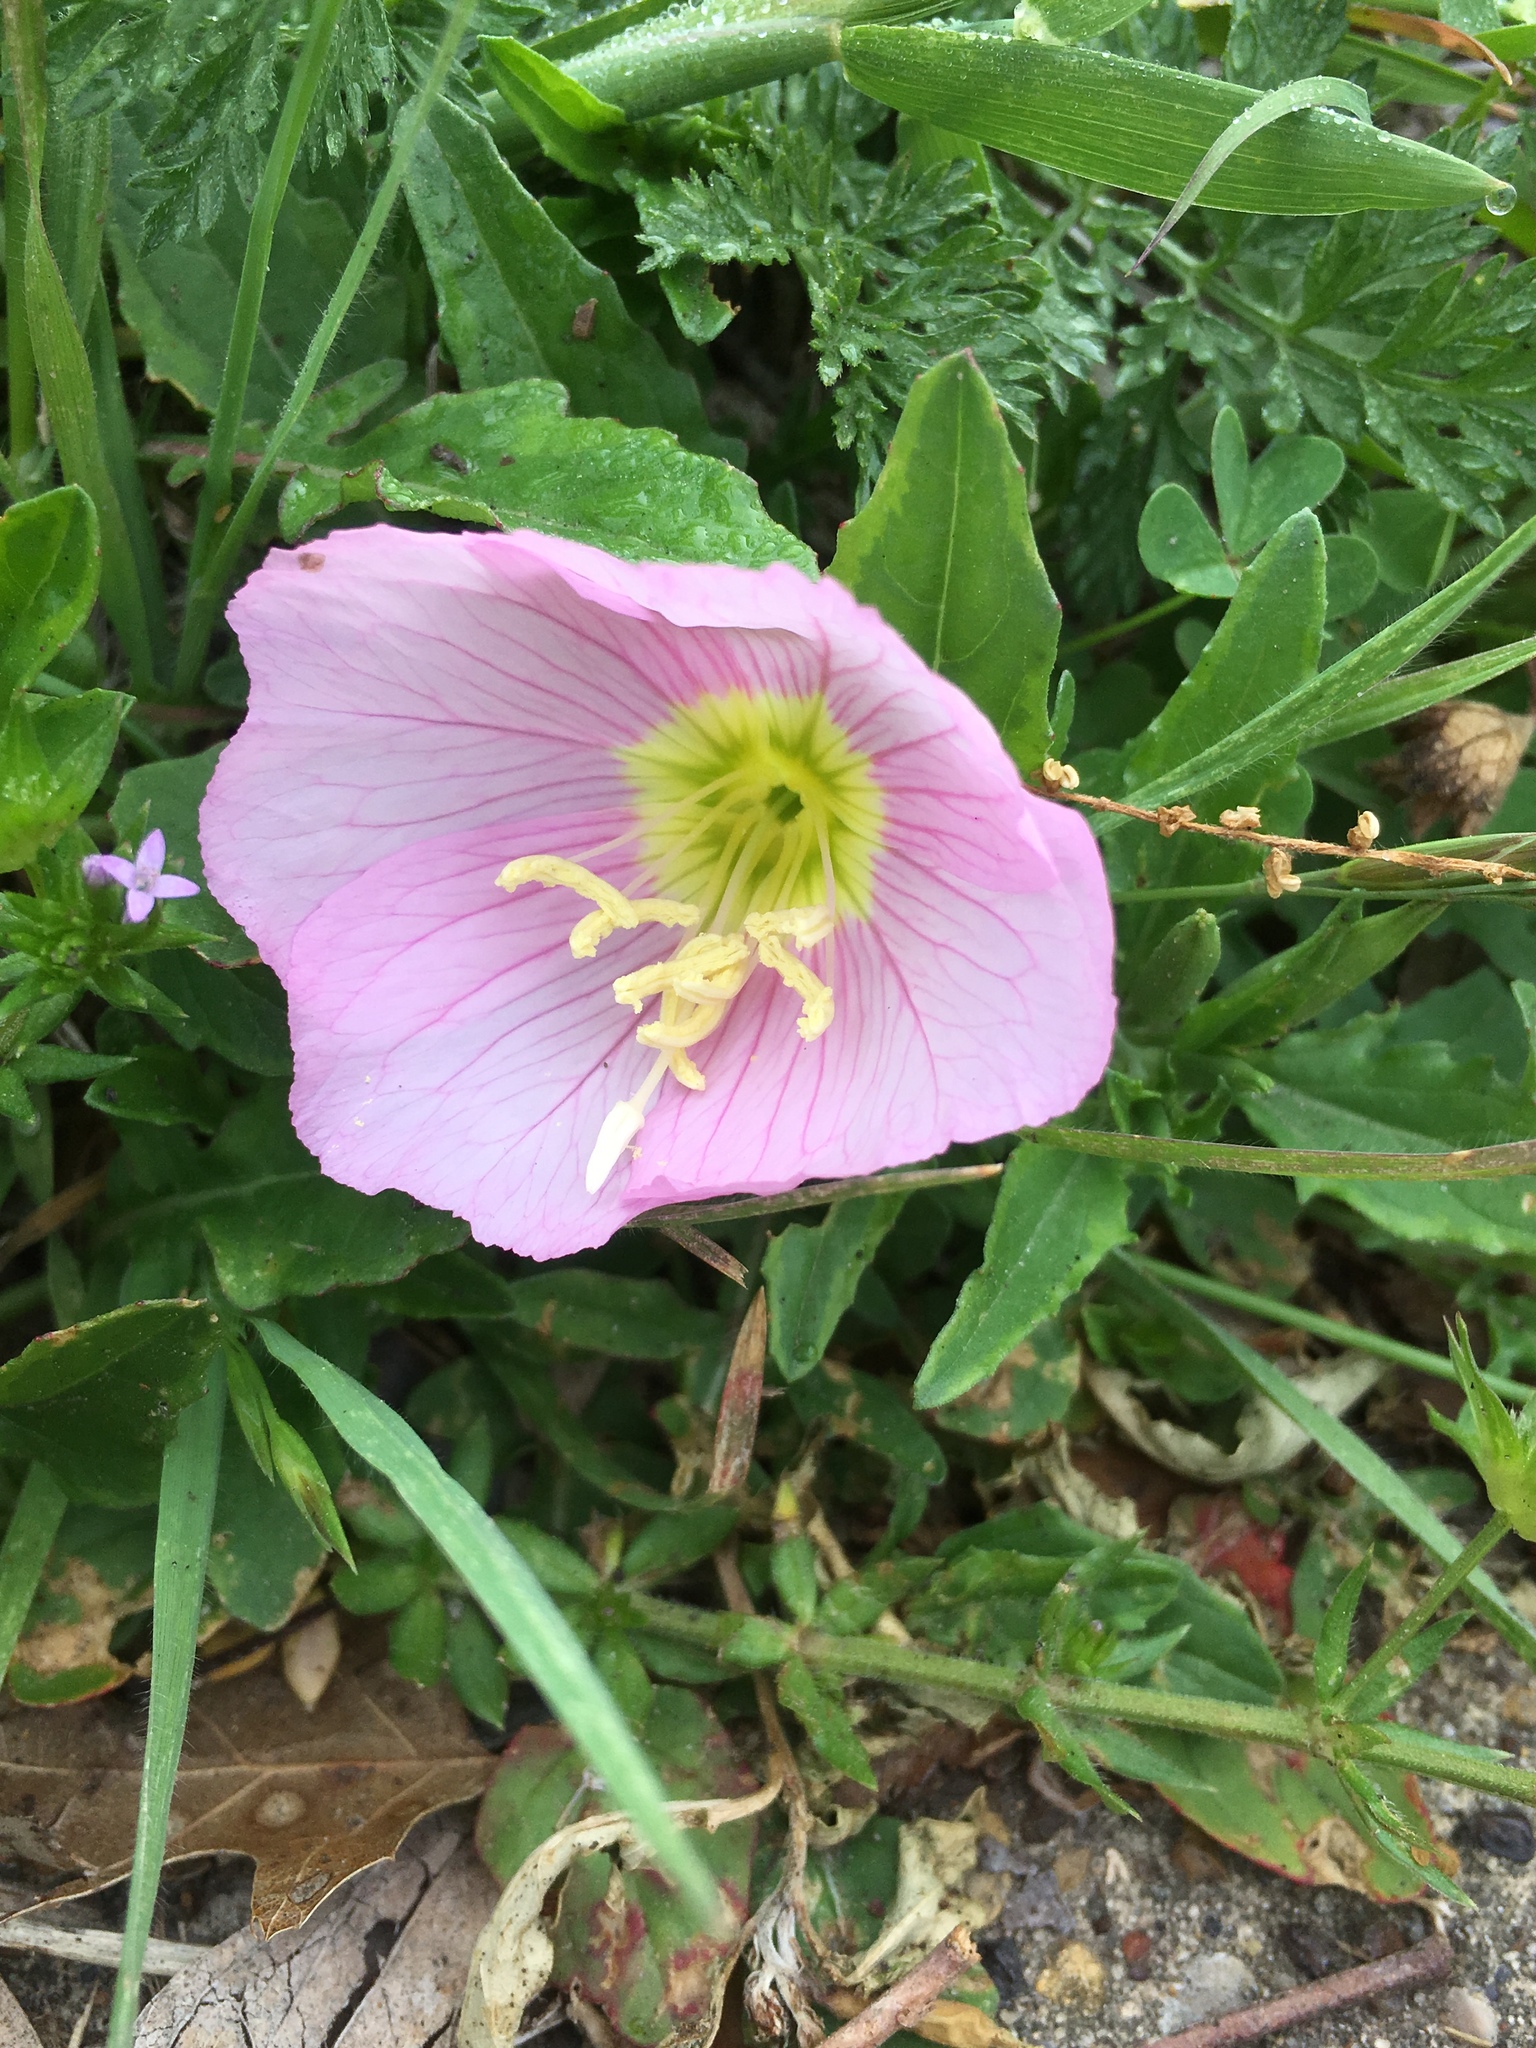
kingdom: Plantae
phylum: Tracheophyta
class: Magnoliopsida
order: Myrtales
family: Onagraceae
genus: Oenothera
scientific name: Oenothera speciosa
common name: White evening-primrose
